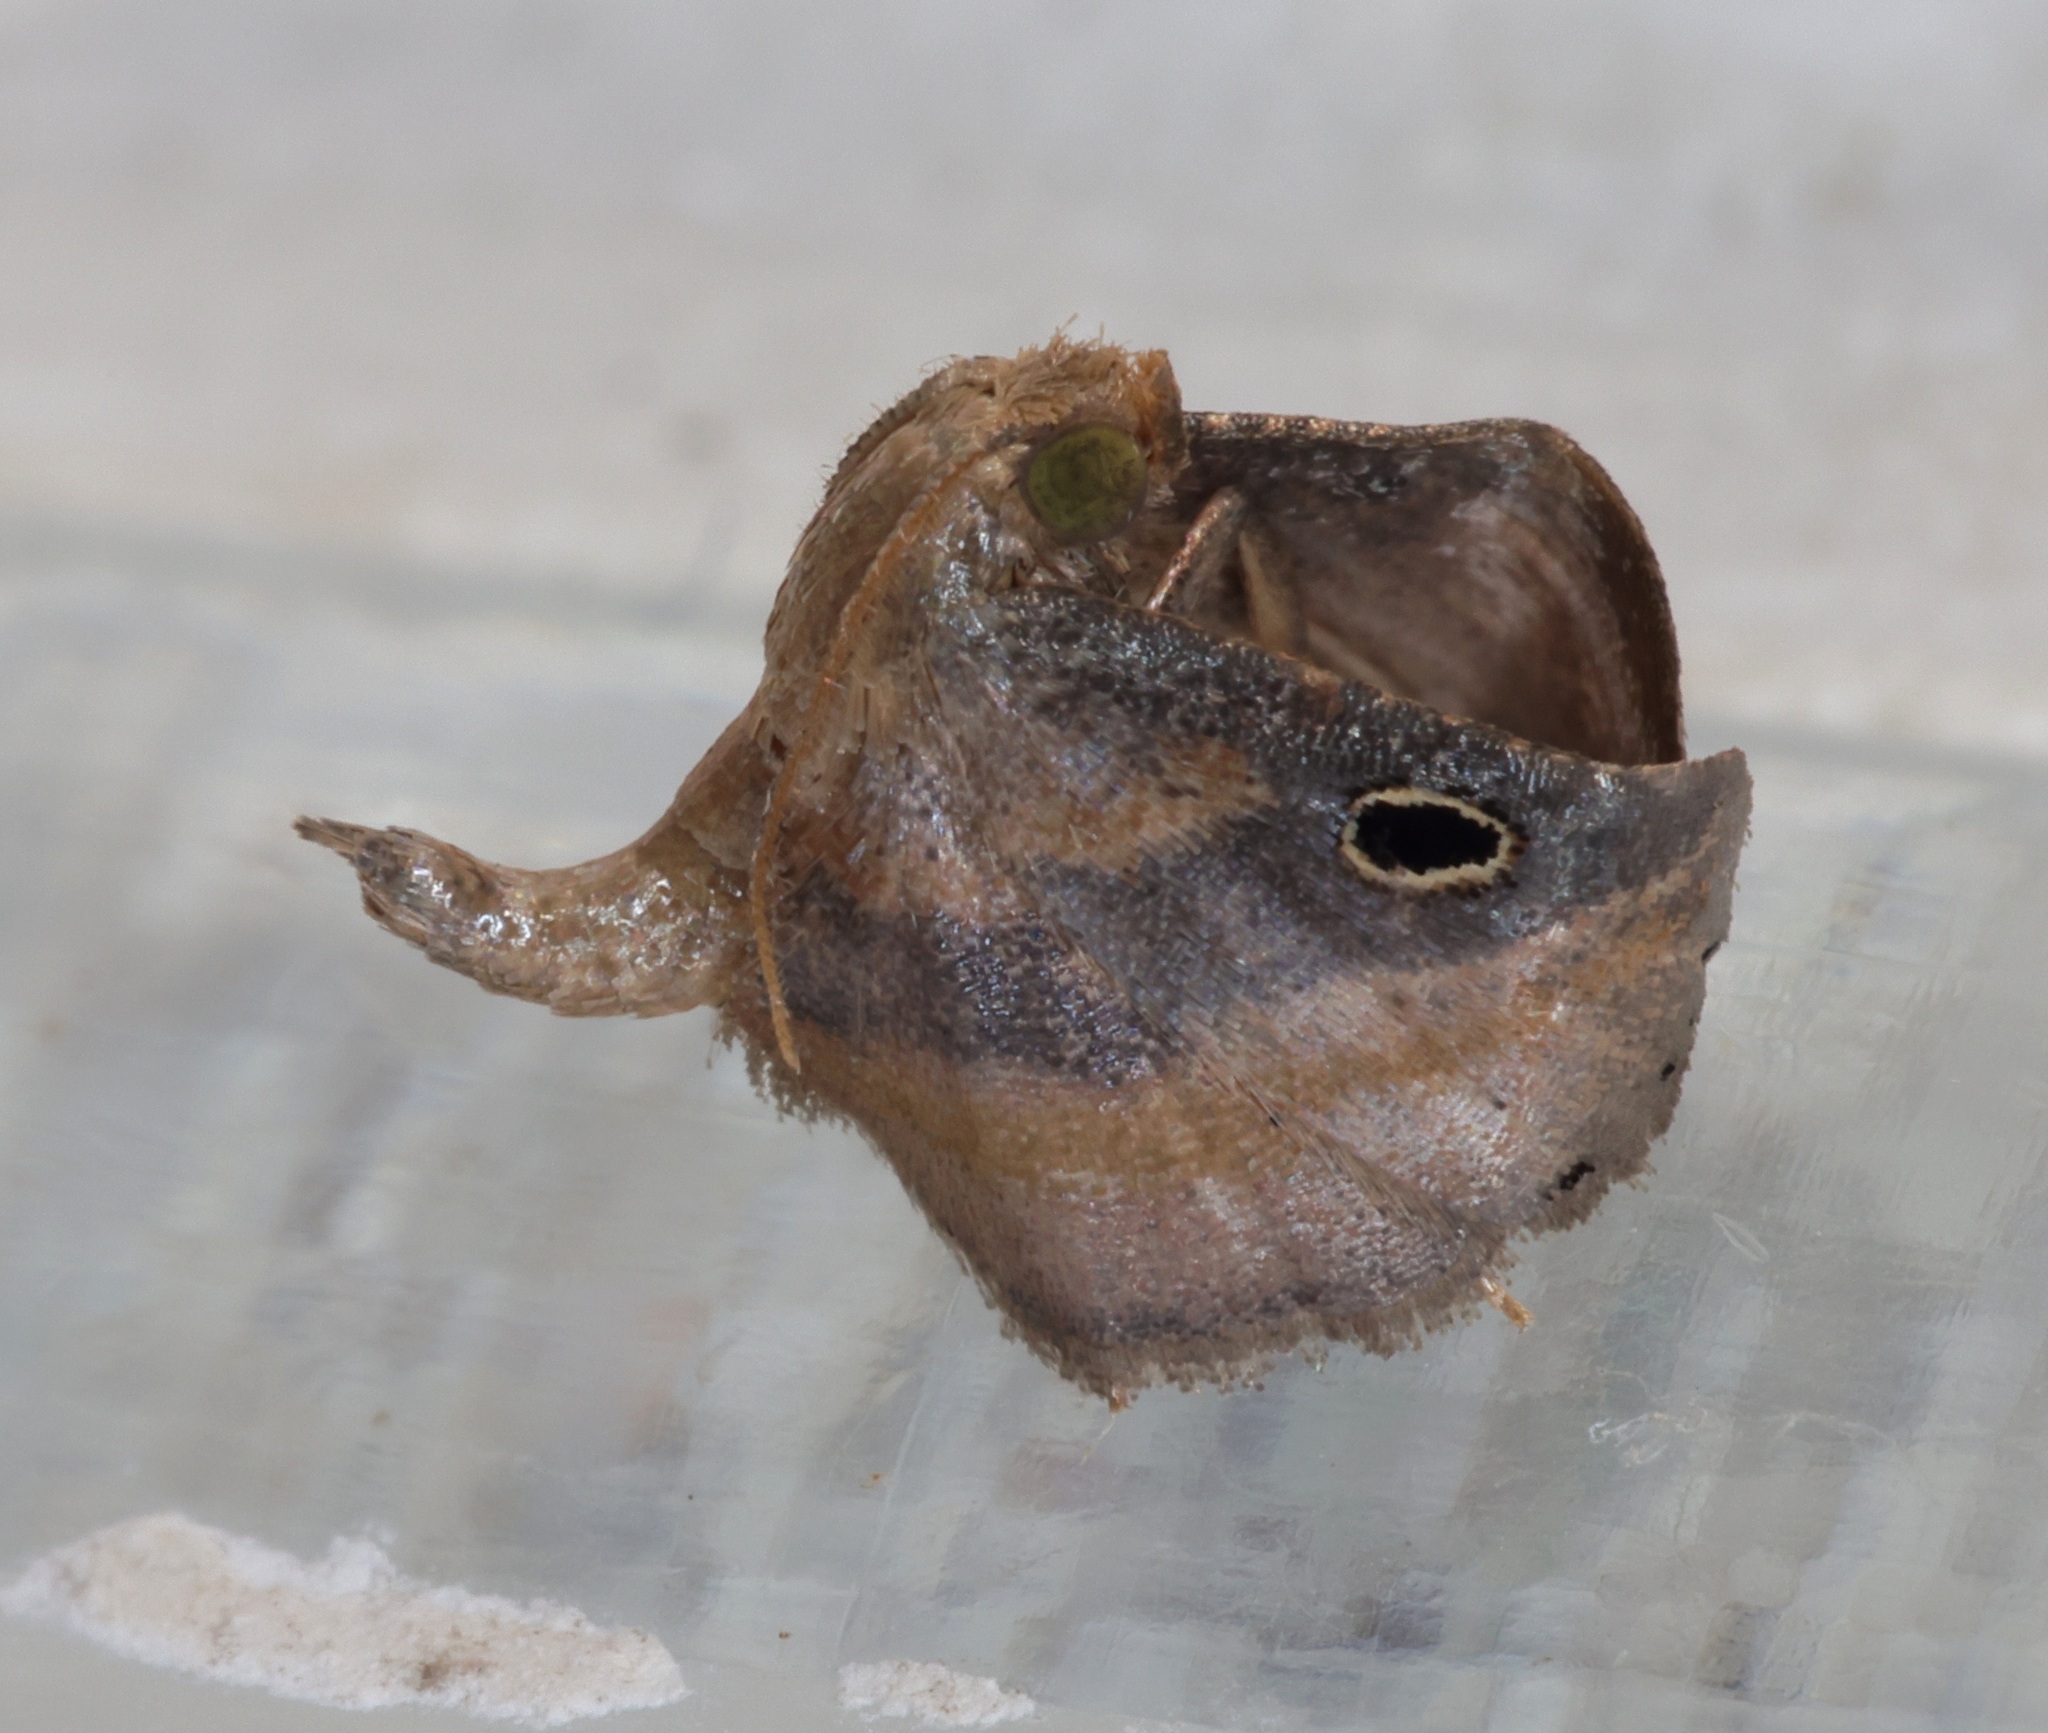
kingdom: Animalia
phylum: Arthropoda
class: Insecta
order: Lepidoptera
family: Pyralidae
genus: Tanyethira
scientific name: Tanyethira
